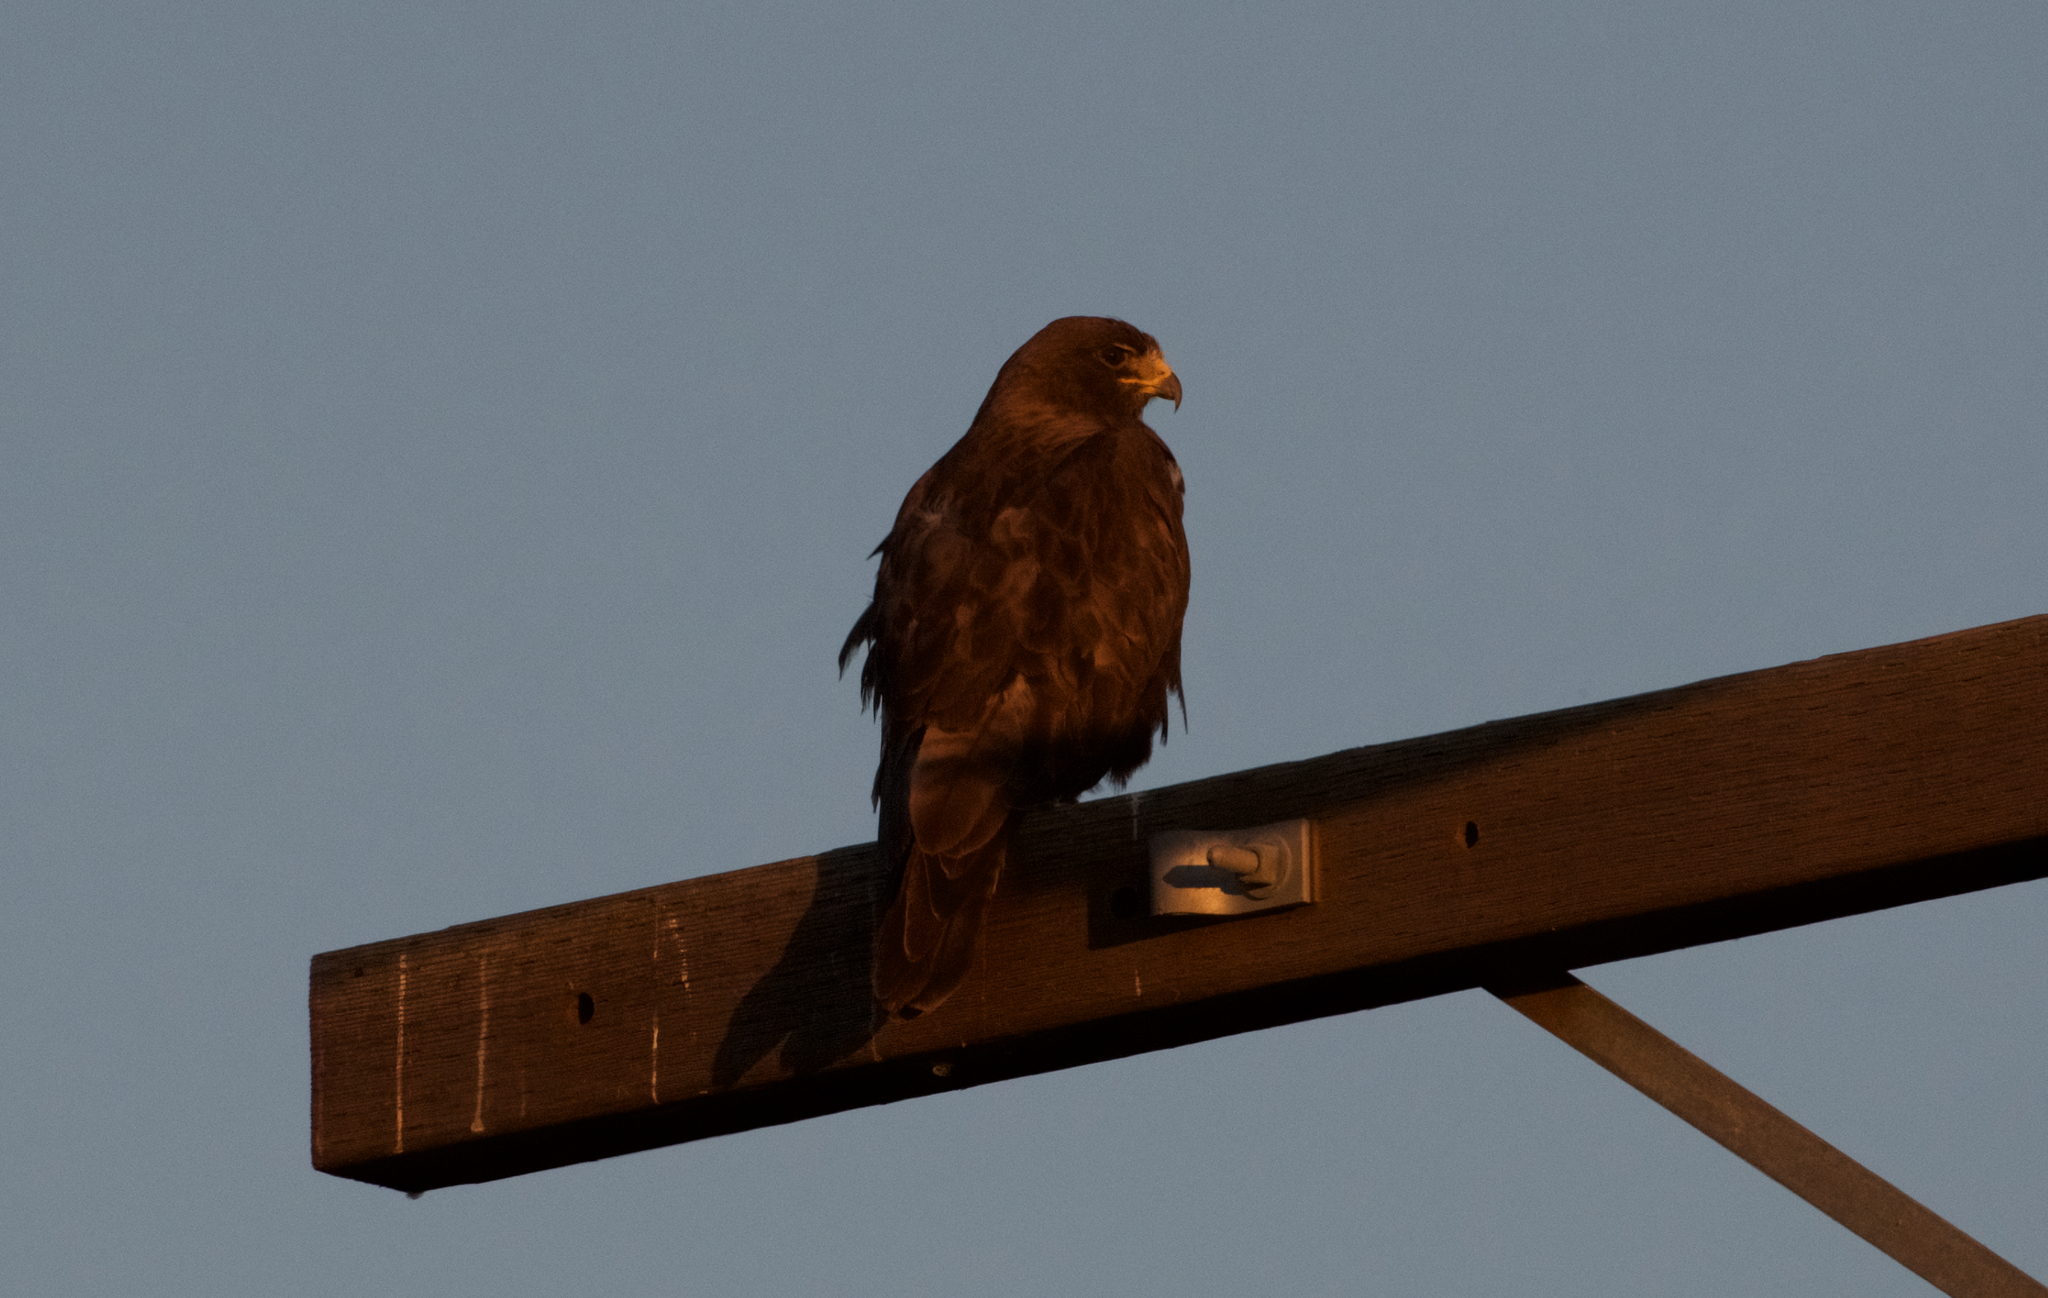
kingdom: Animalia
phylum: Chordata
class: Aves
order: Accipitriformes
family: Accipitridae
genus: Buteo
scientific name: Buteo jamaicensis
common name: Red-tailed hawk
